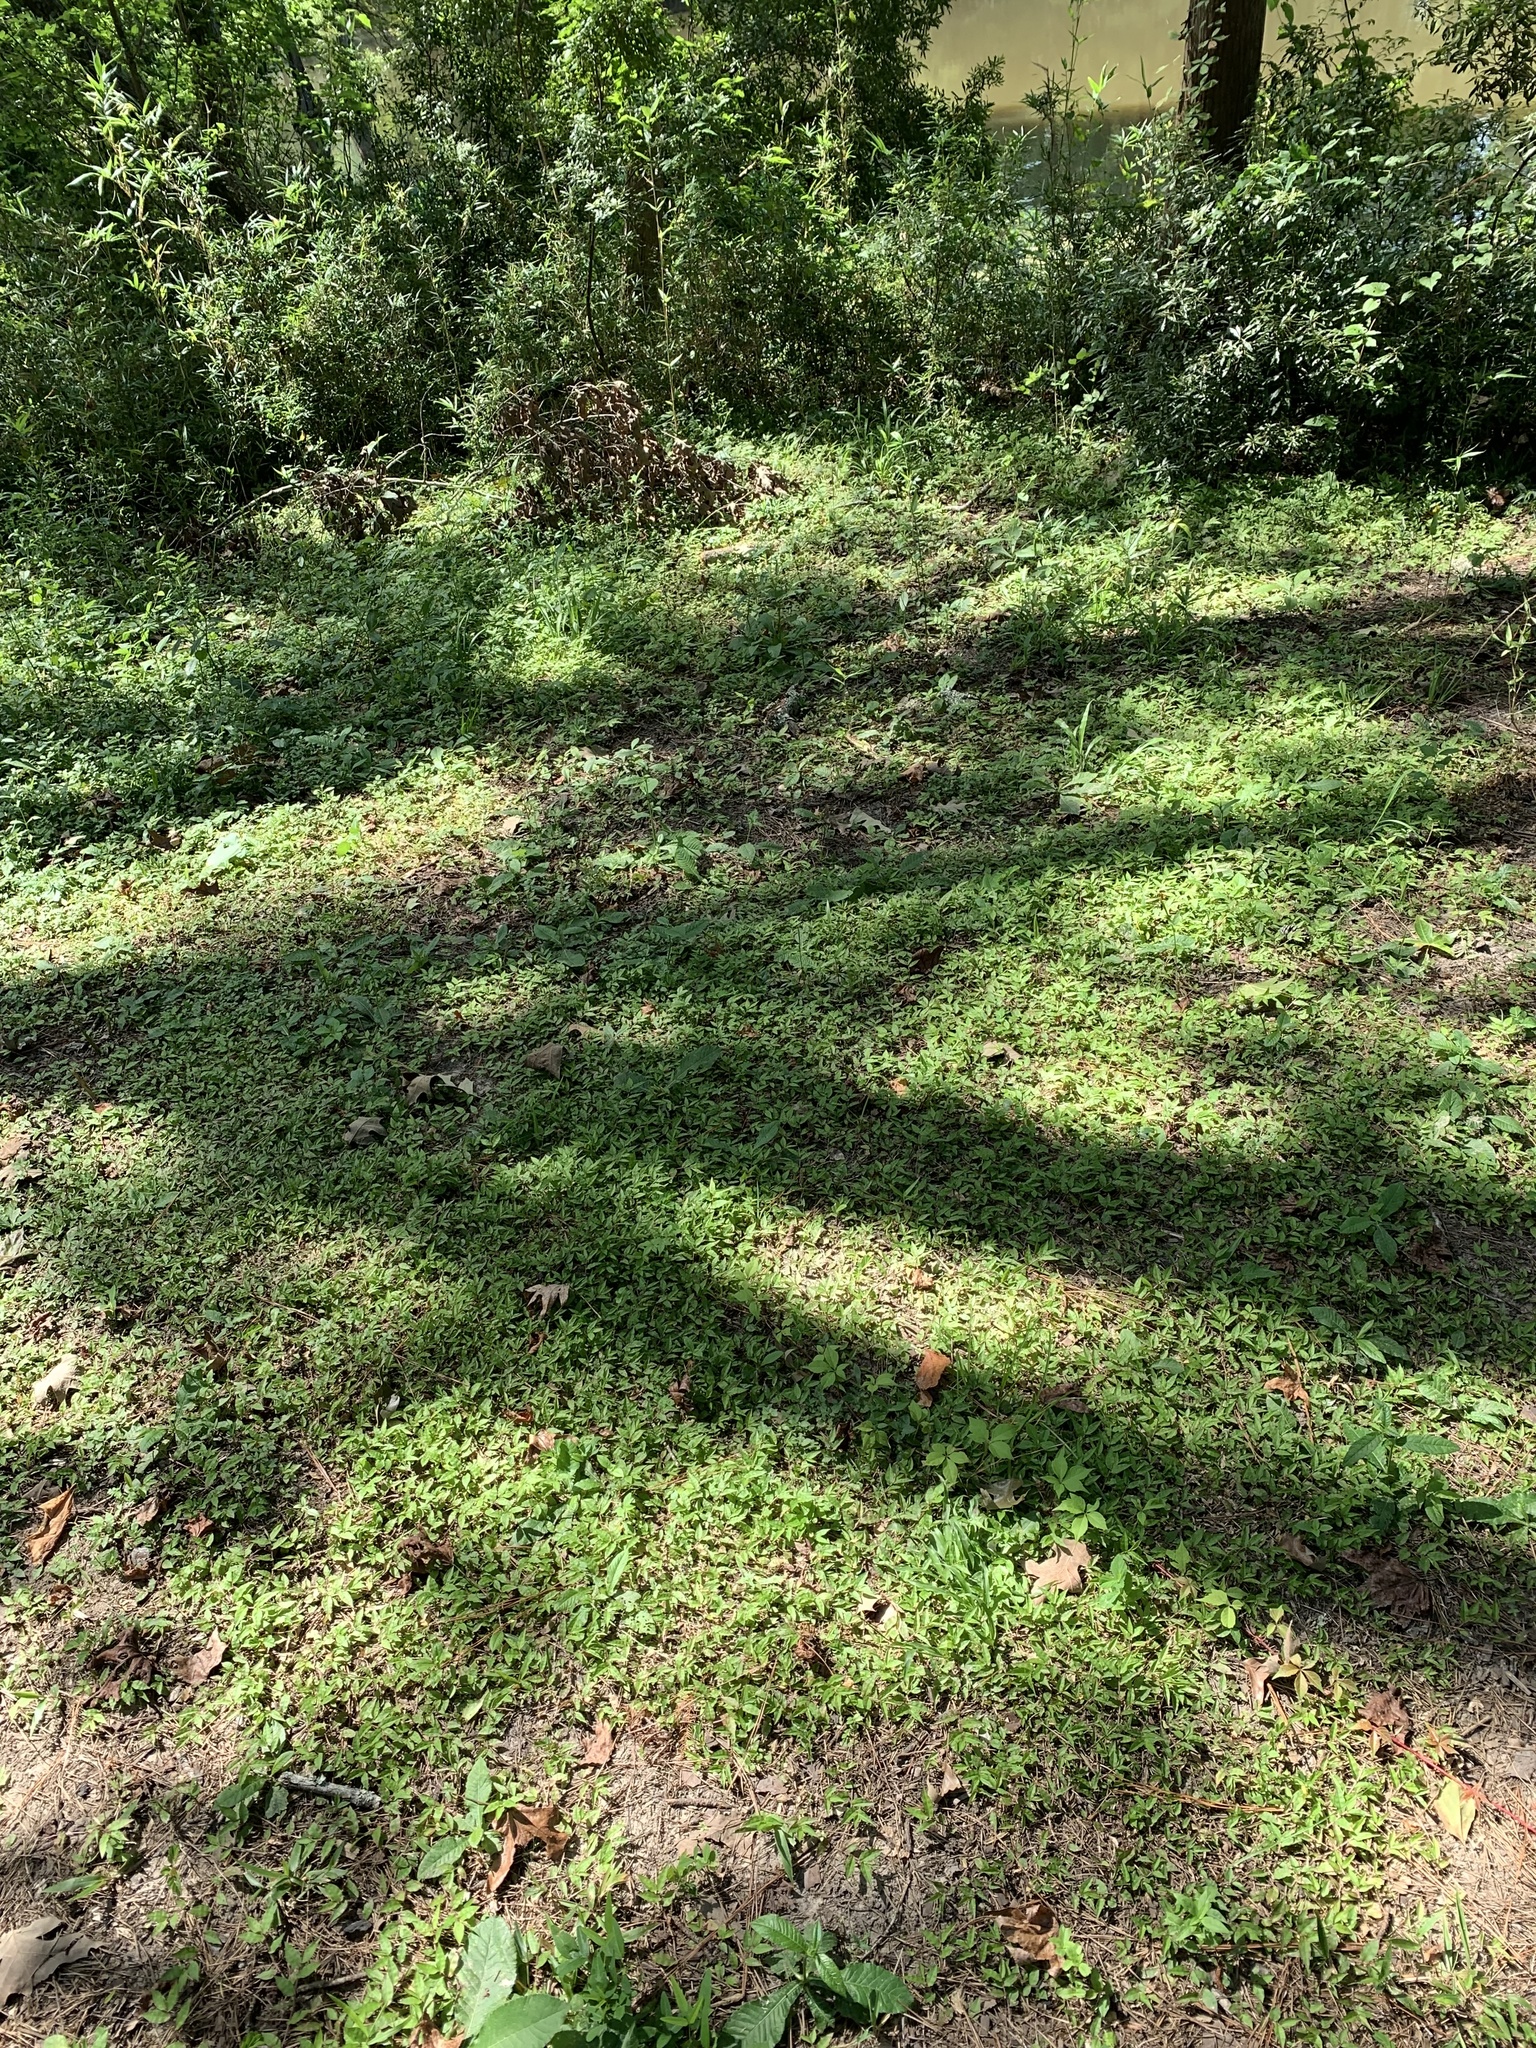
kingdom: Plantae
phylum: Tracheophyta
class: Liliopsida
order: Poales
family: Poaceae
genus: Oplismenus
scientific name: Oplismenus hirtellus
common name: Basketgrass
